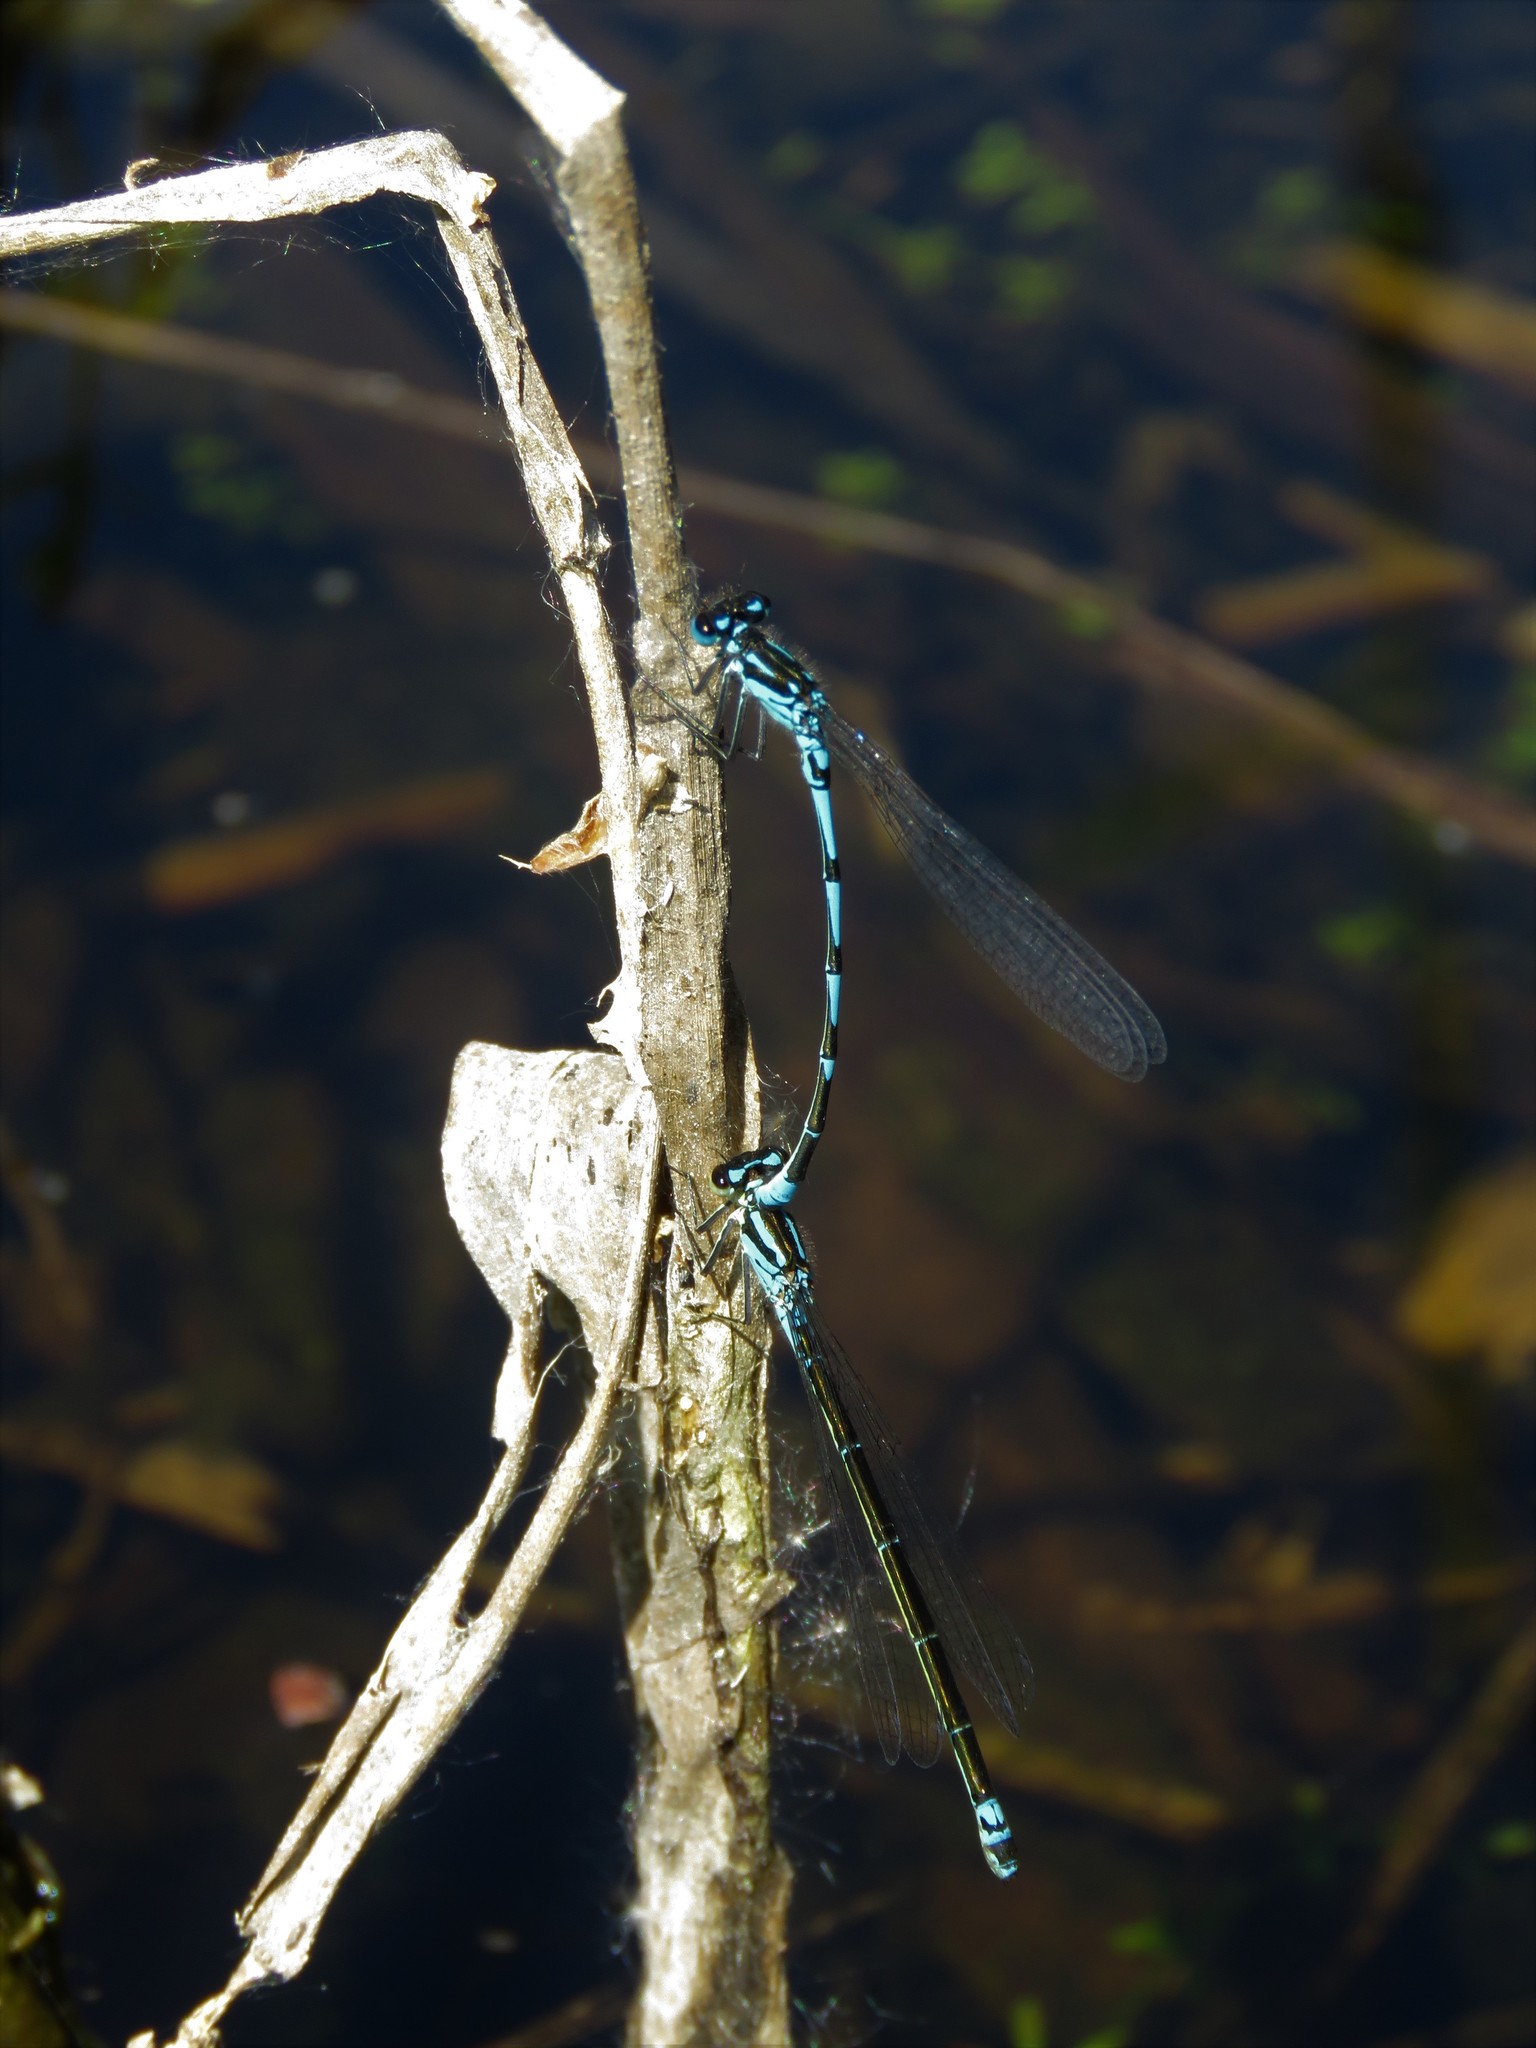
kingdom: Animalia
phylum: Arthropoda
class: Insecta
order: Odonata
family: Coenagrionidae
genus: Coenagrion
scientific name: Coenagrion pulchellum
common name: Variable bluet
